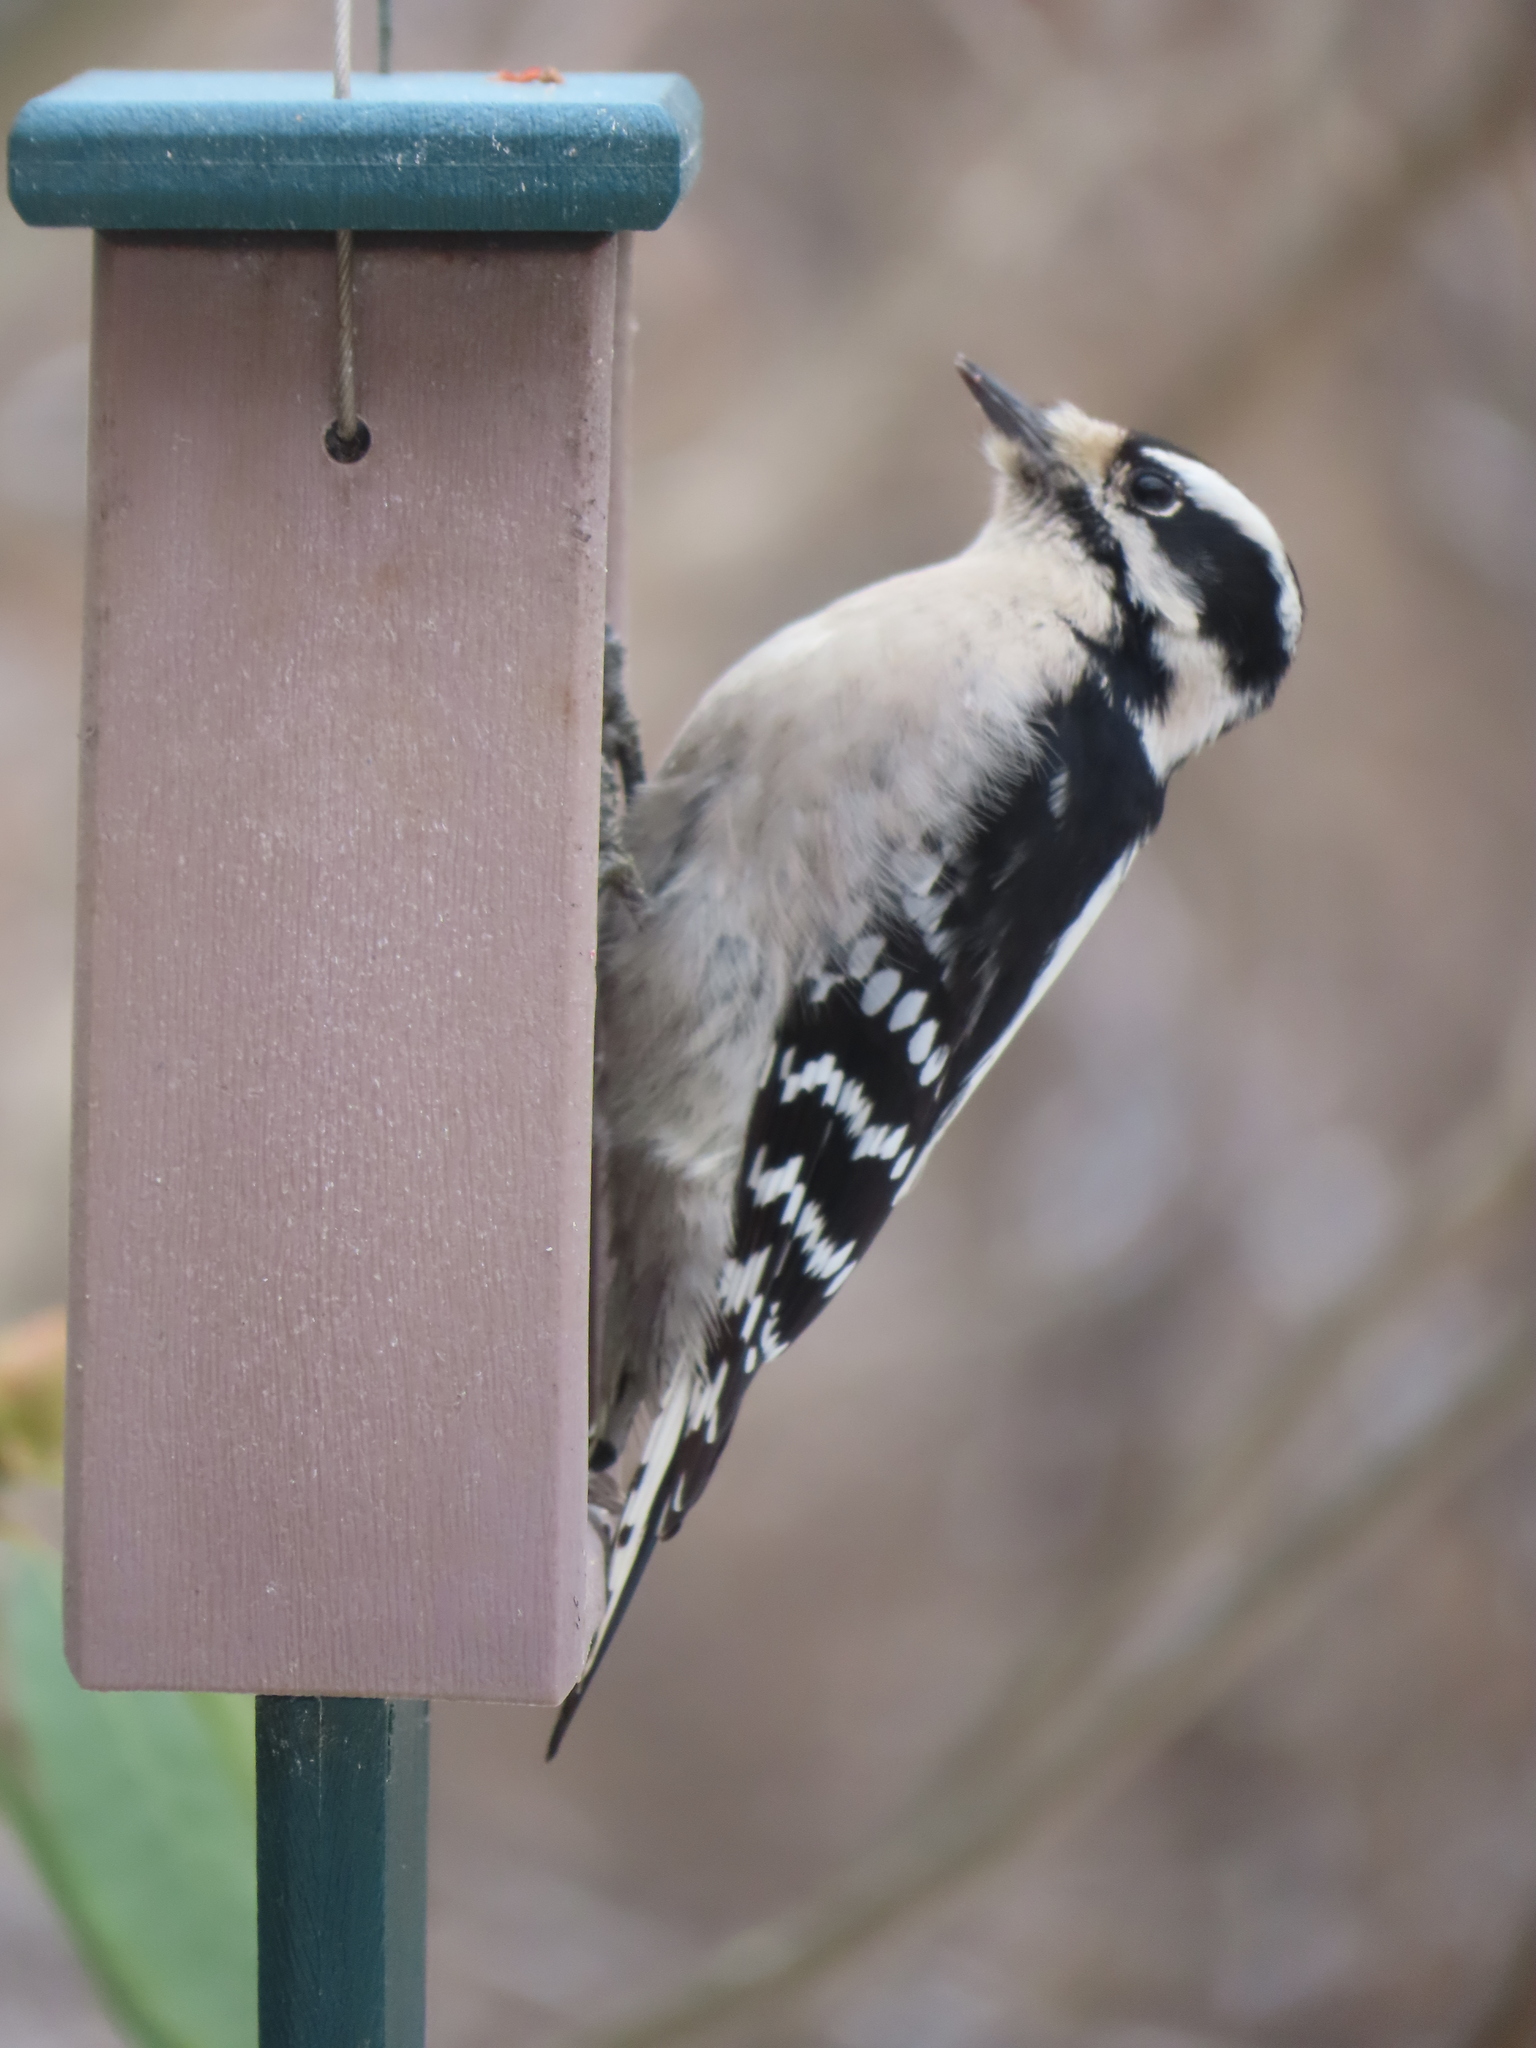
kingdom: Animalia
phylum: Chordata
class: Aves
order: Piciformes
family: Picidae
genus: Dryobates
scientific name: Dryobates pubescens
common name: Downy woodpecker
